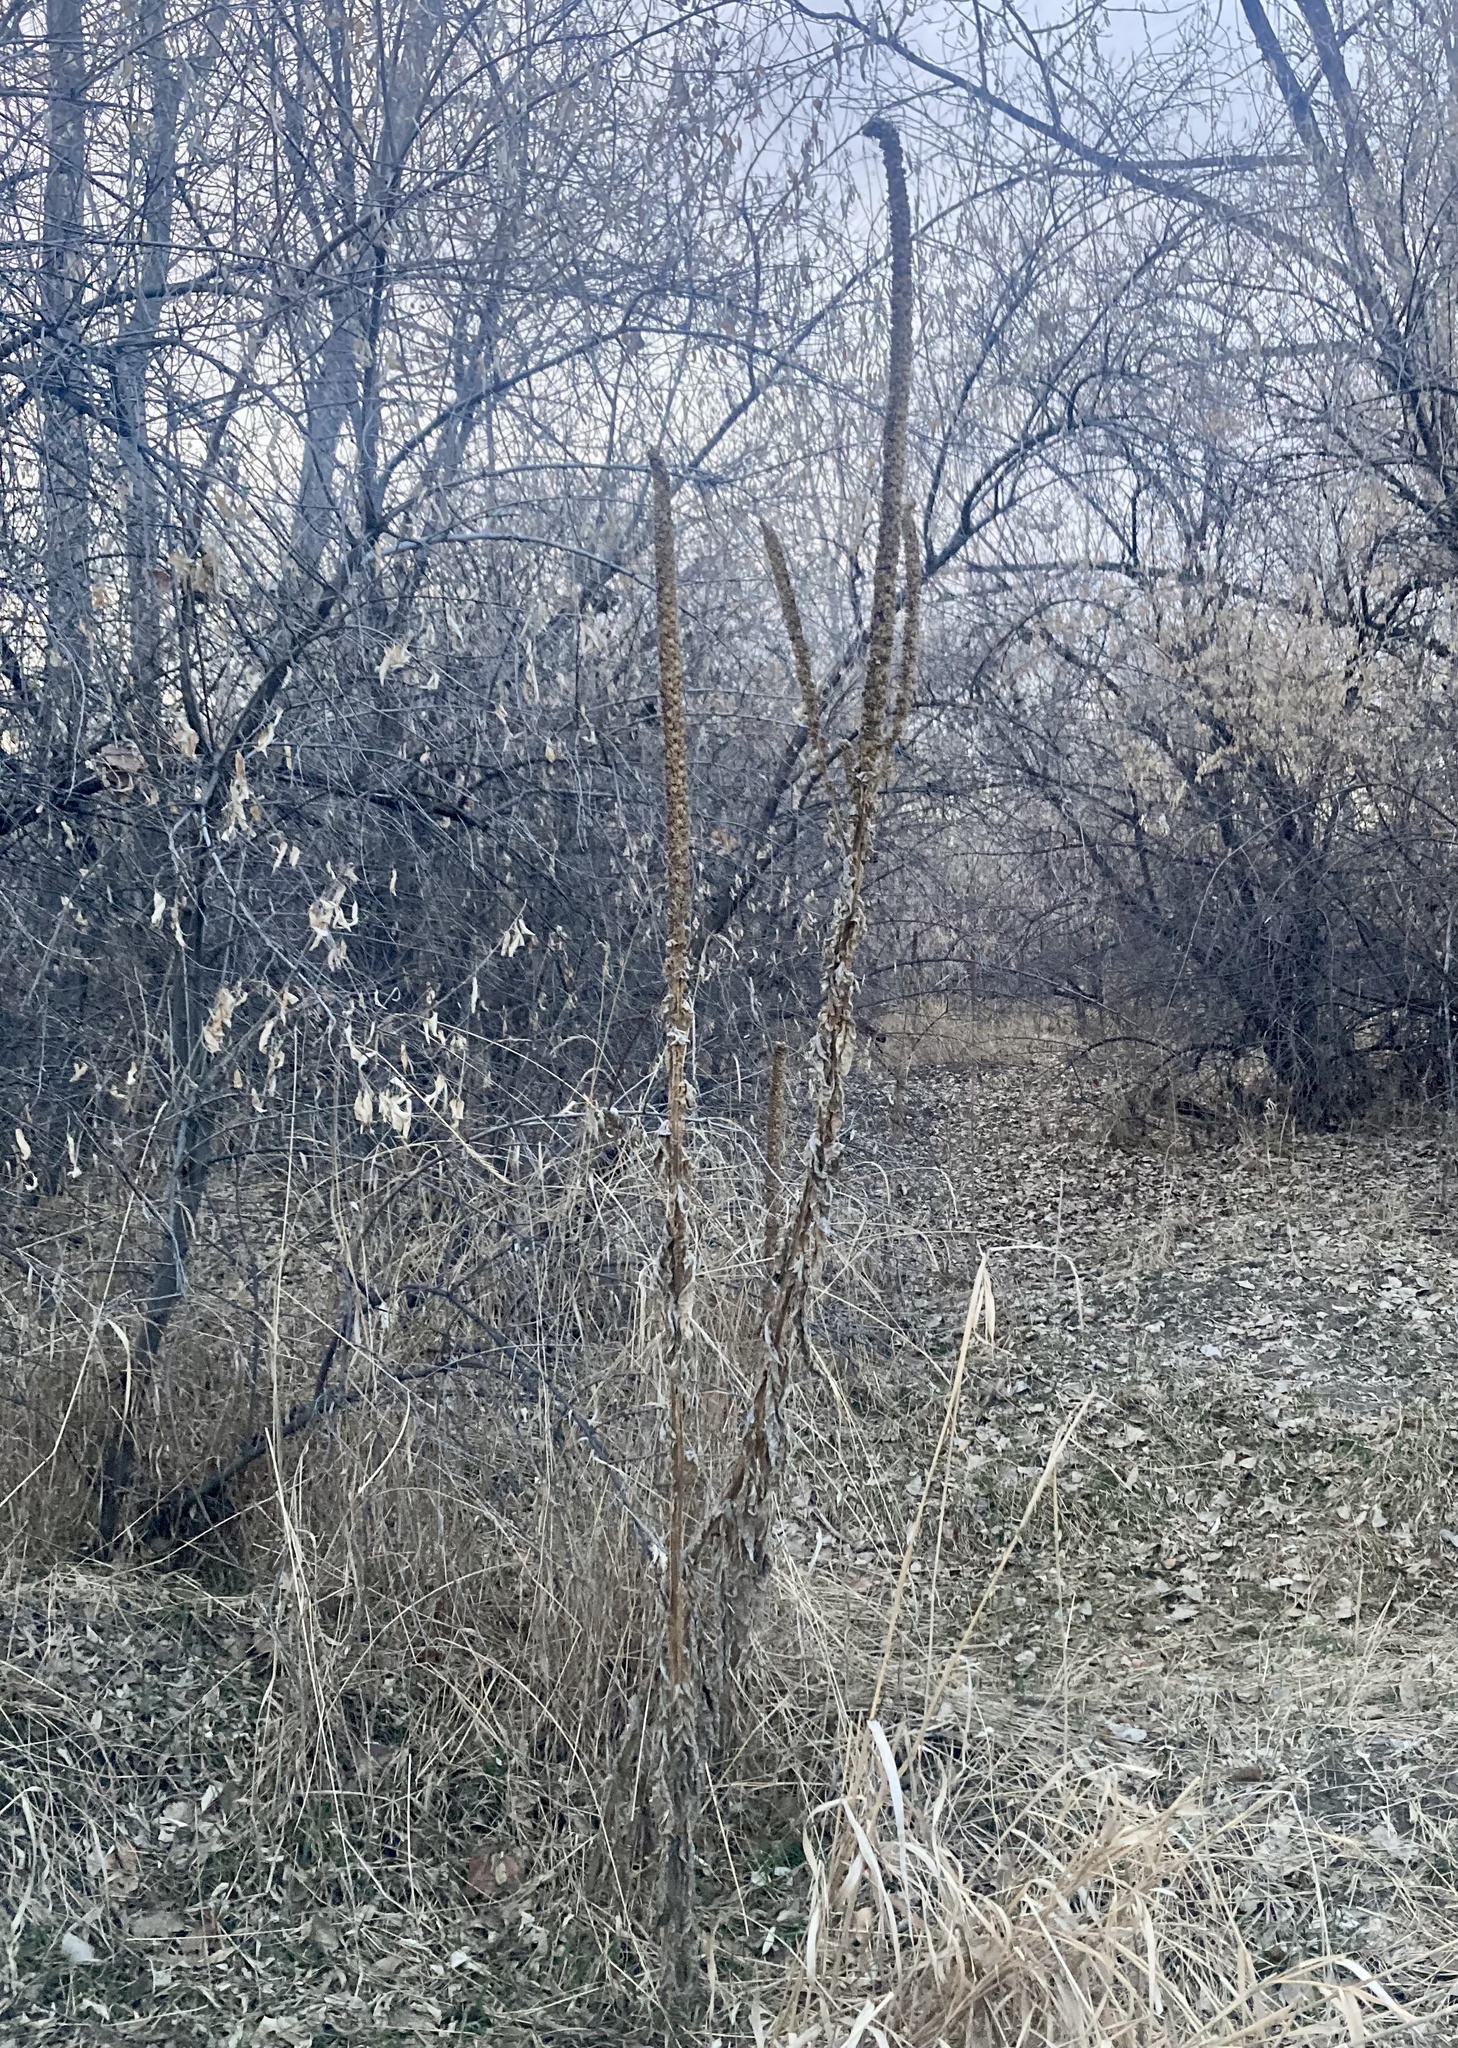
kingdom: Plantae
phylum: Tracheophyta
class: Magnoliopsida
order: Lamiales
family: Scrophulariaceae
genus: Verbascum
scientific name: Verbascum thapsus
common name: Common mullein
